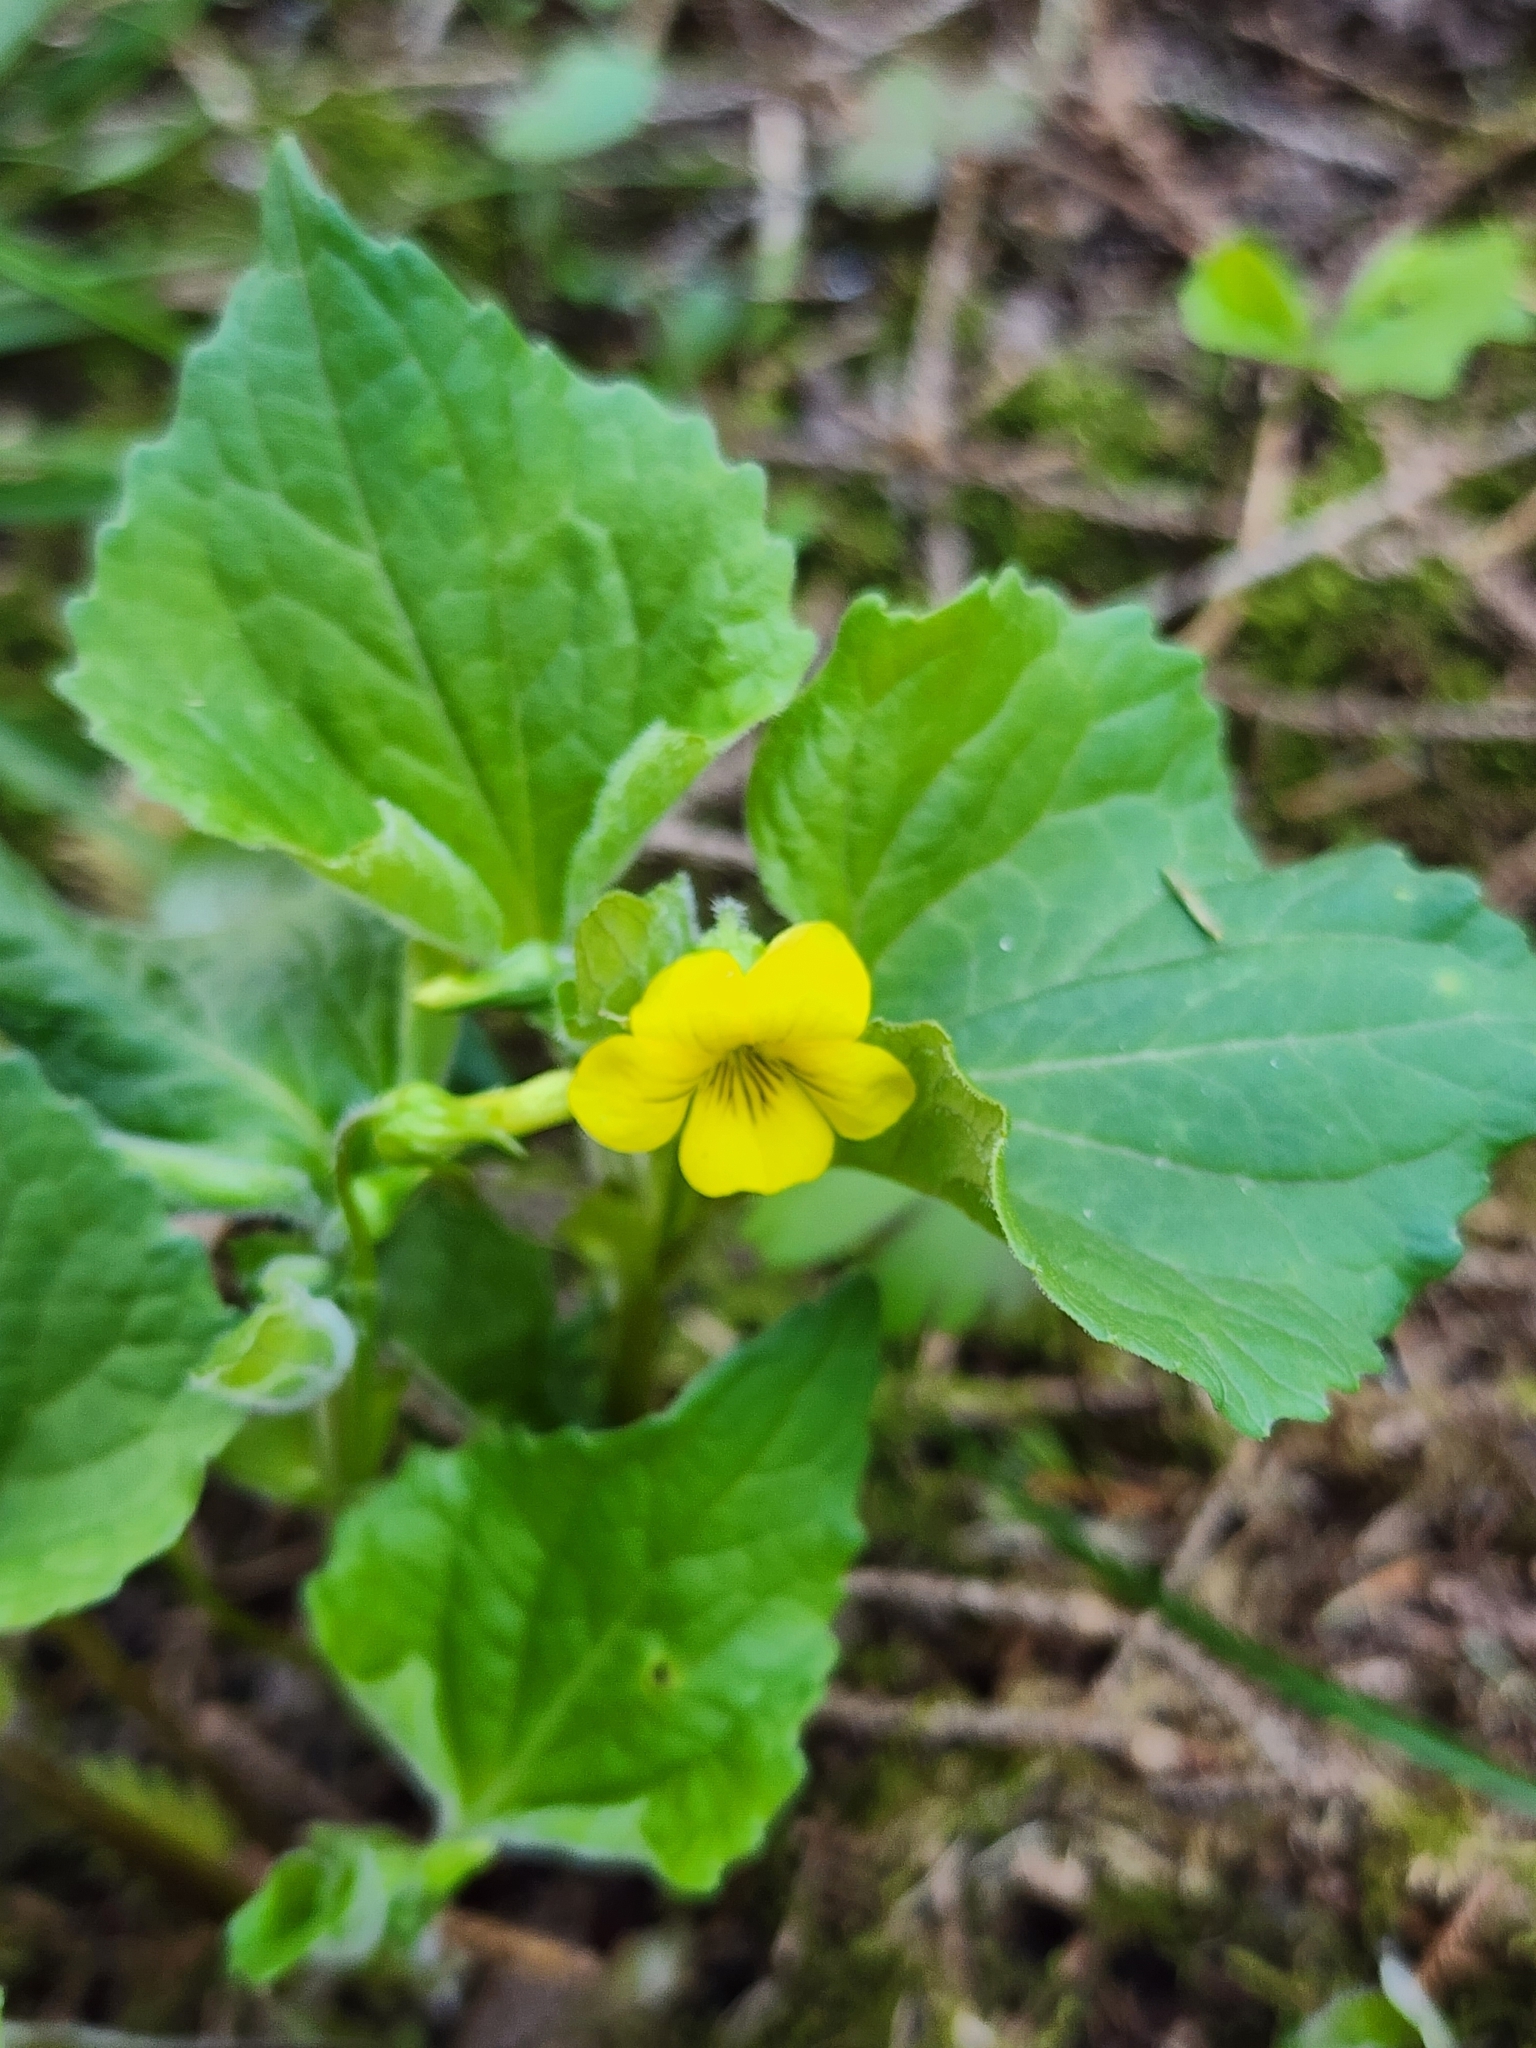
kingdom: Plantae
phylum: Tracheophyta
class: Magnoliopsida
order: Malpighiales
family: Violaceae
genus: Viola
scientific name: Viola eriocarpa
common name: Smooth yellow violet
